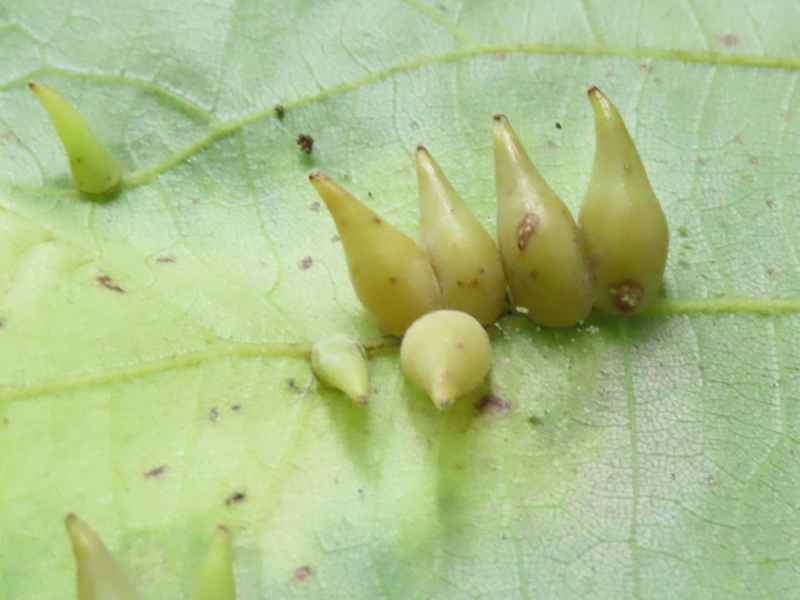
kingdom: Animalia
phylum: Arthropoda
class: Insecta
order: Diptera
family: Cecidomyiidae
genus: Caryomyia
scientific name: Caryomyia caryaecola
